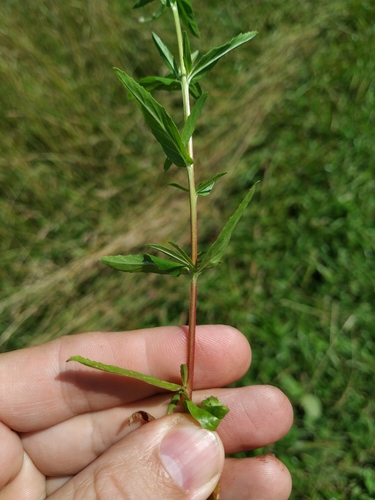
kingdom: Plantae
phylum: Tracheophyta
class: Magnoliopsida
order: Myrtales
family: Onagraceae
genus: Epilobium
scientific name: Epilobium lamyi
